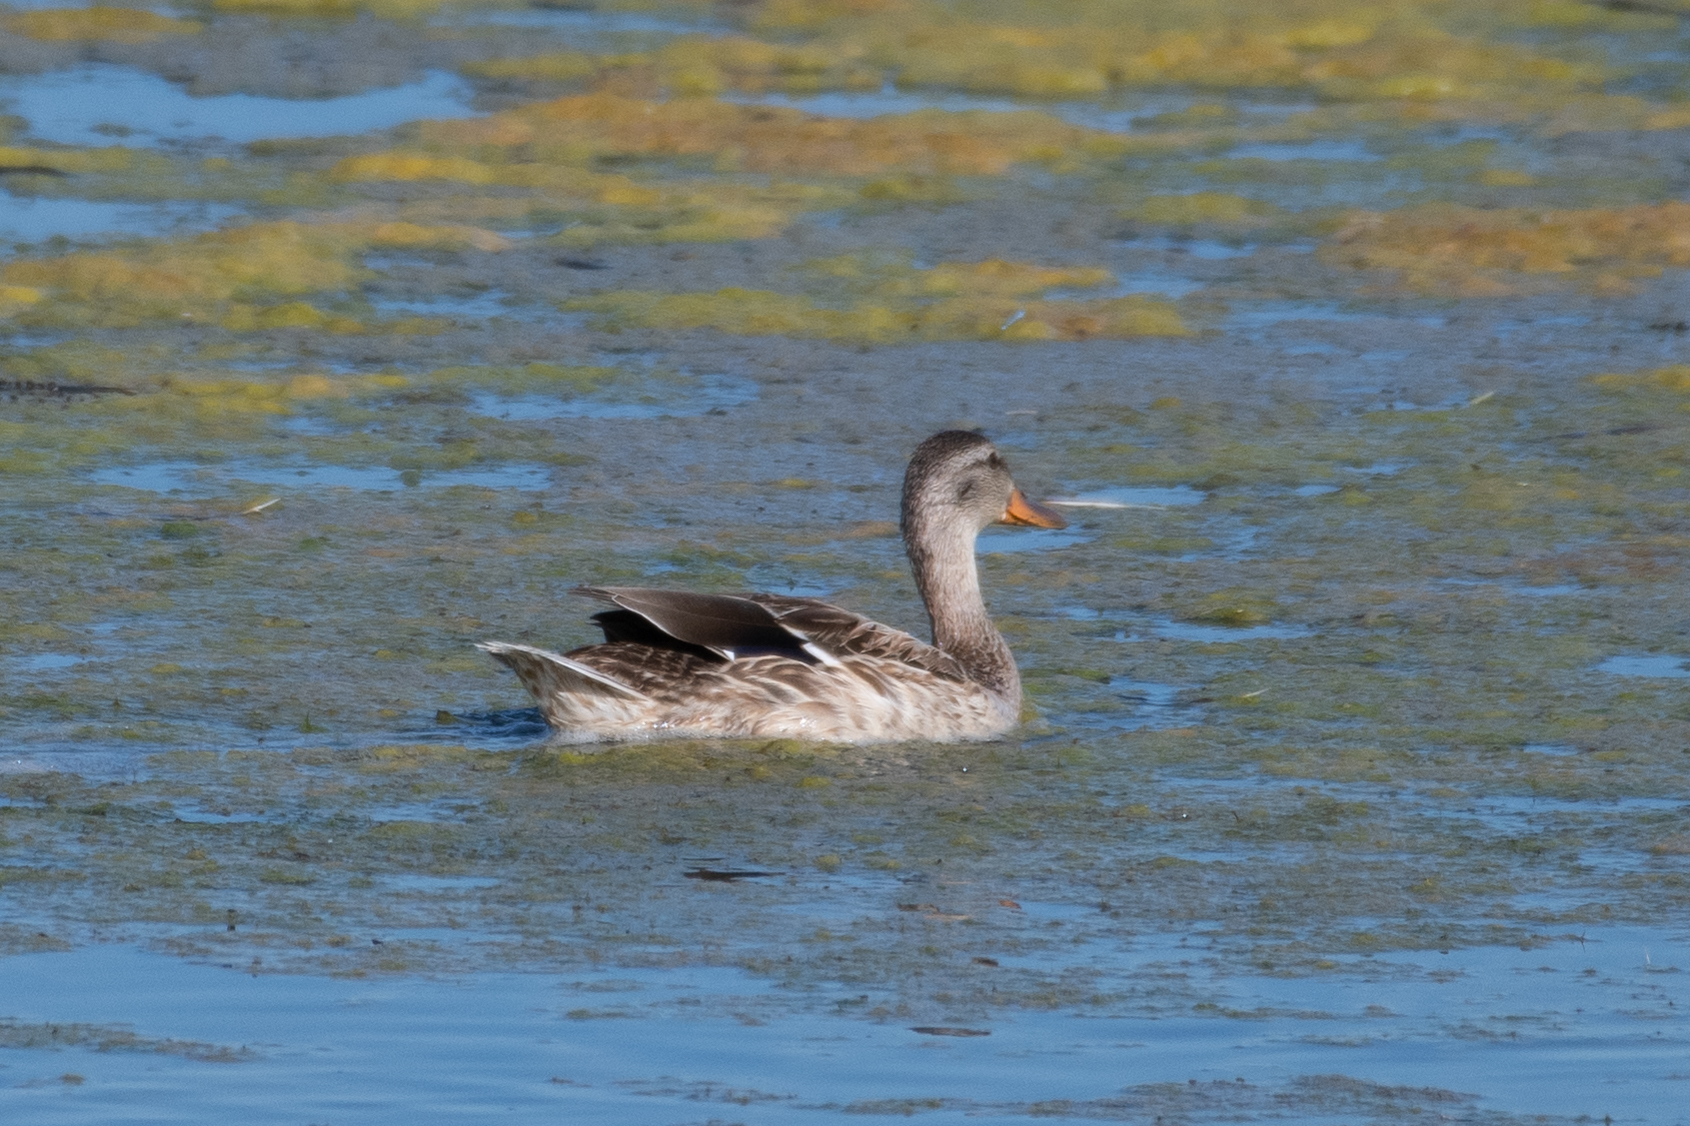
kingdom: Animalia
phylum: Chordata
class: Aves
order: Anseriformes
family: Anatidae
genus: Anas
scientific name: Anas platyrhynchos
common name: Mallard
